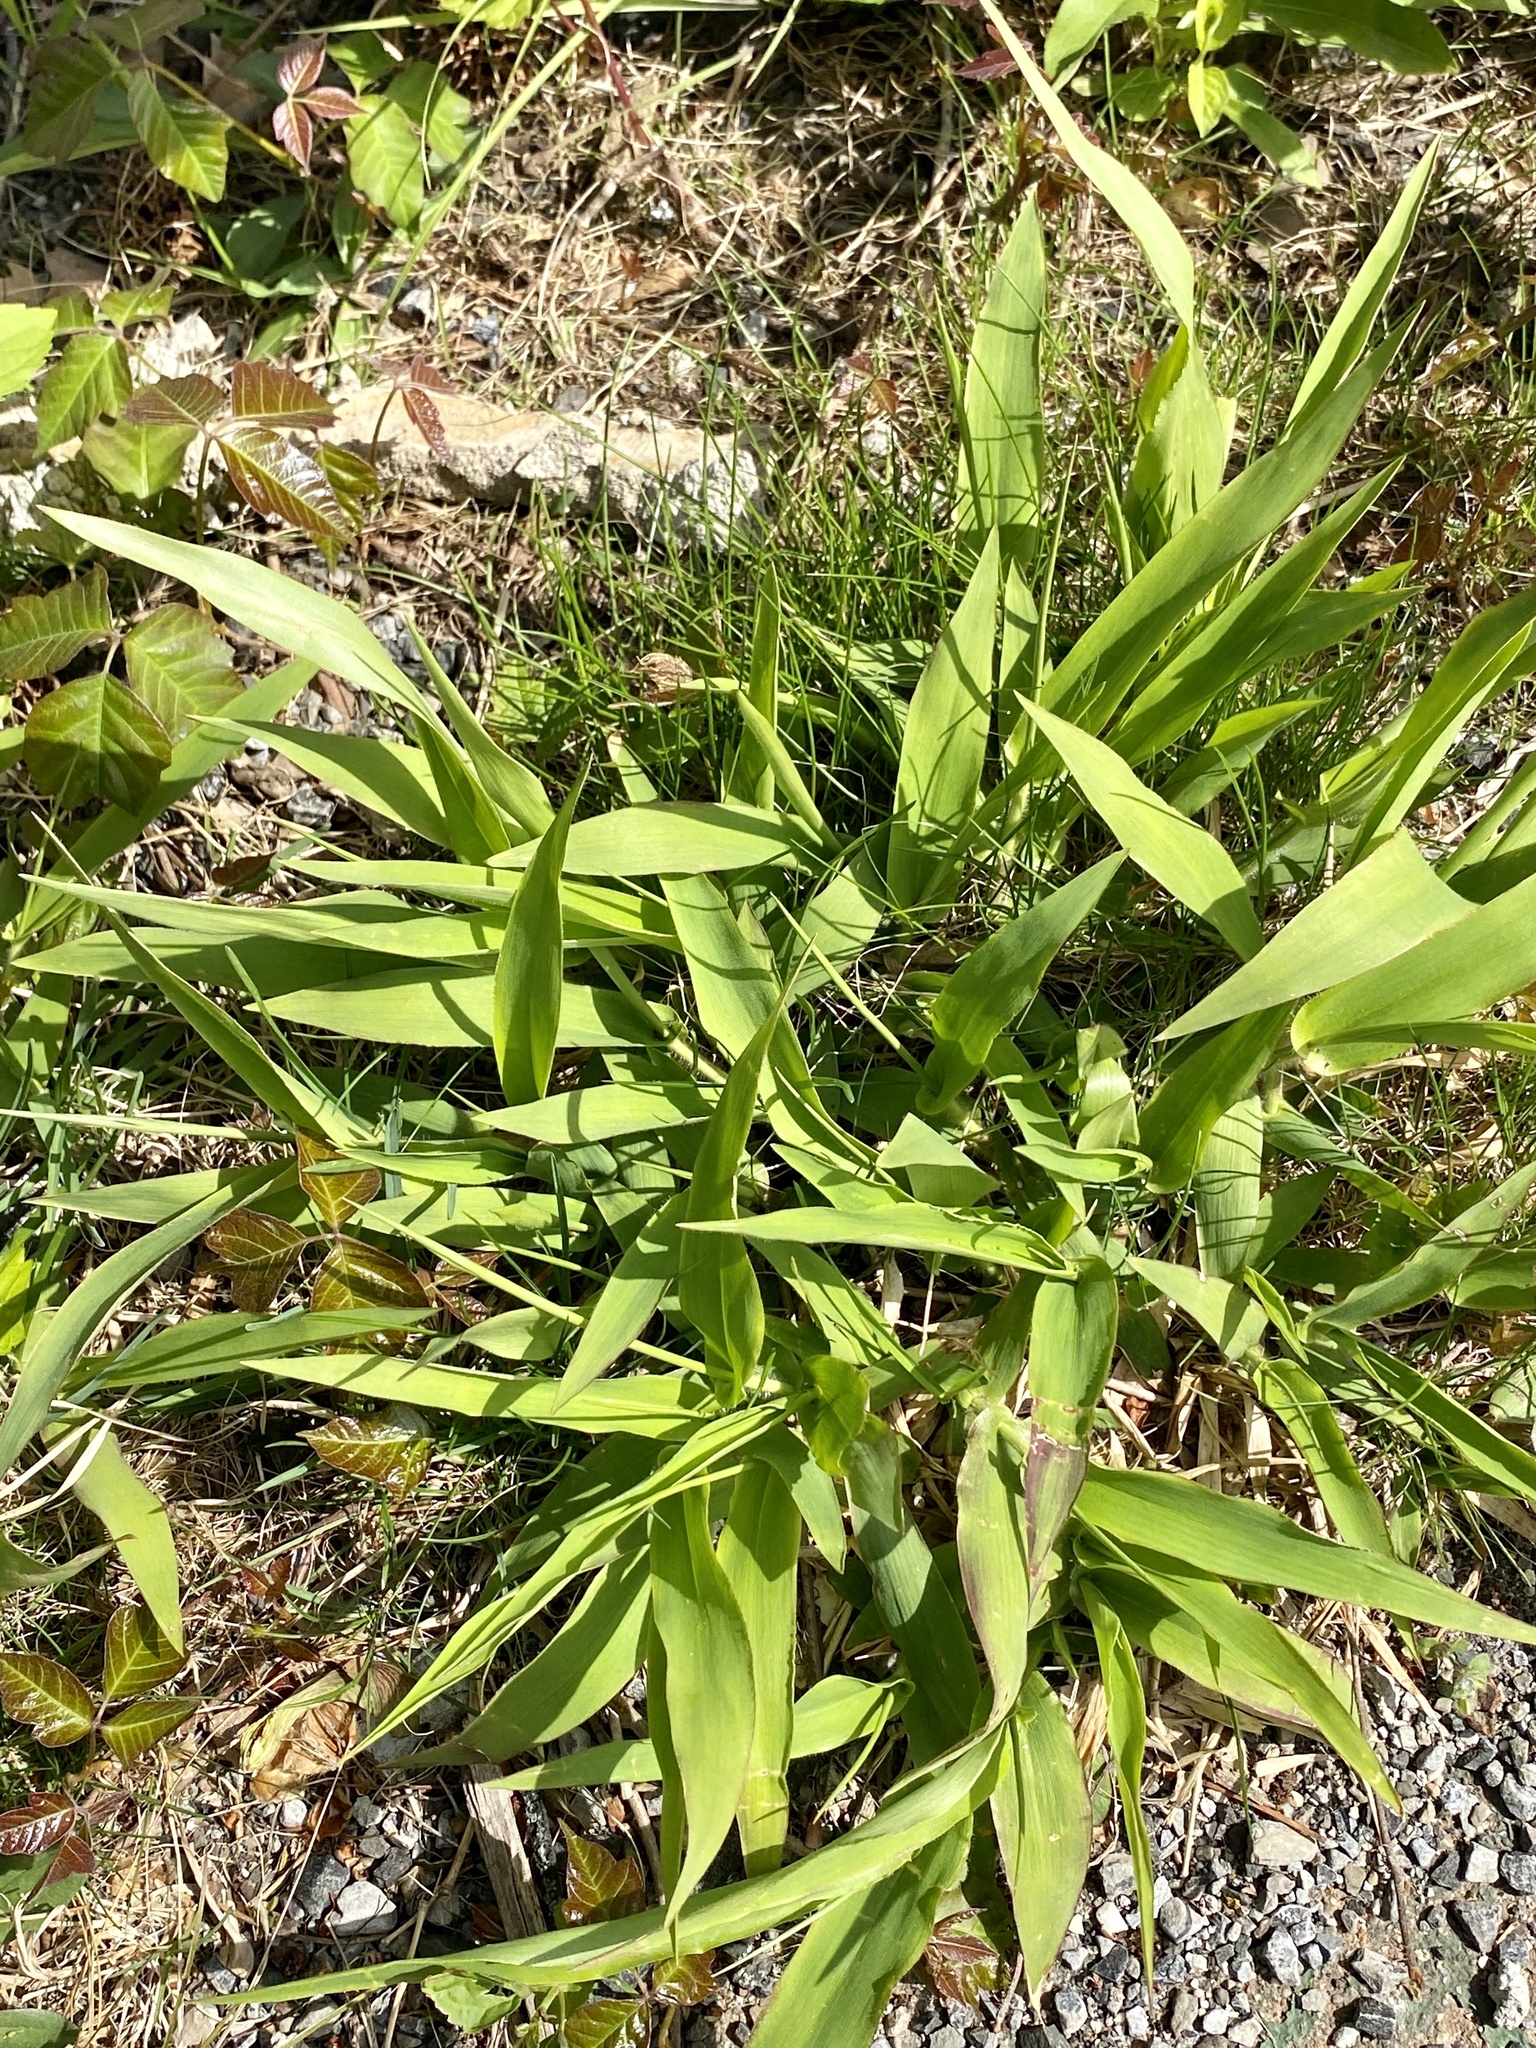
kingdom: Plantae
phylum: Tracheophyta
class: Liliopsida
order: Poales
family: Poaceae
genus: Dichanthelium
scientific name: Dichanthelium clandestinum
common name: Deer-tongue grass
